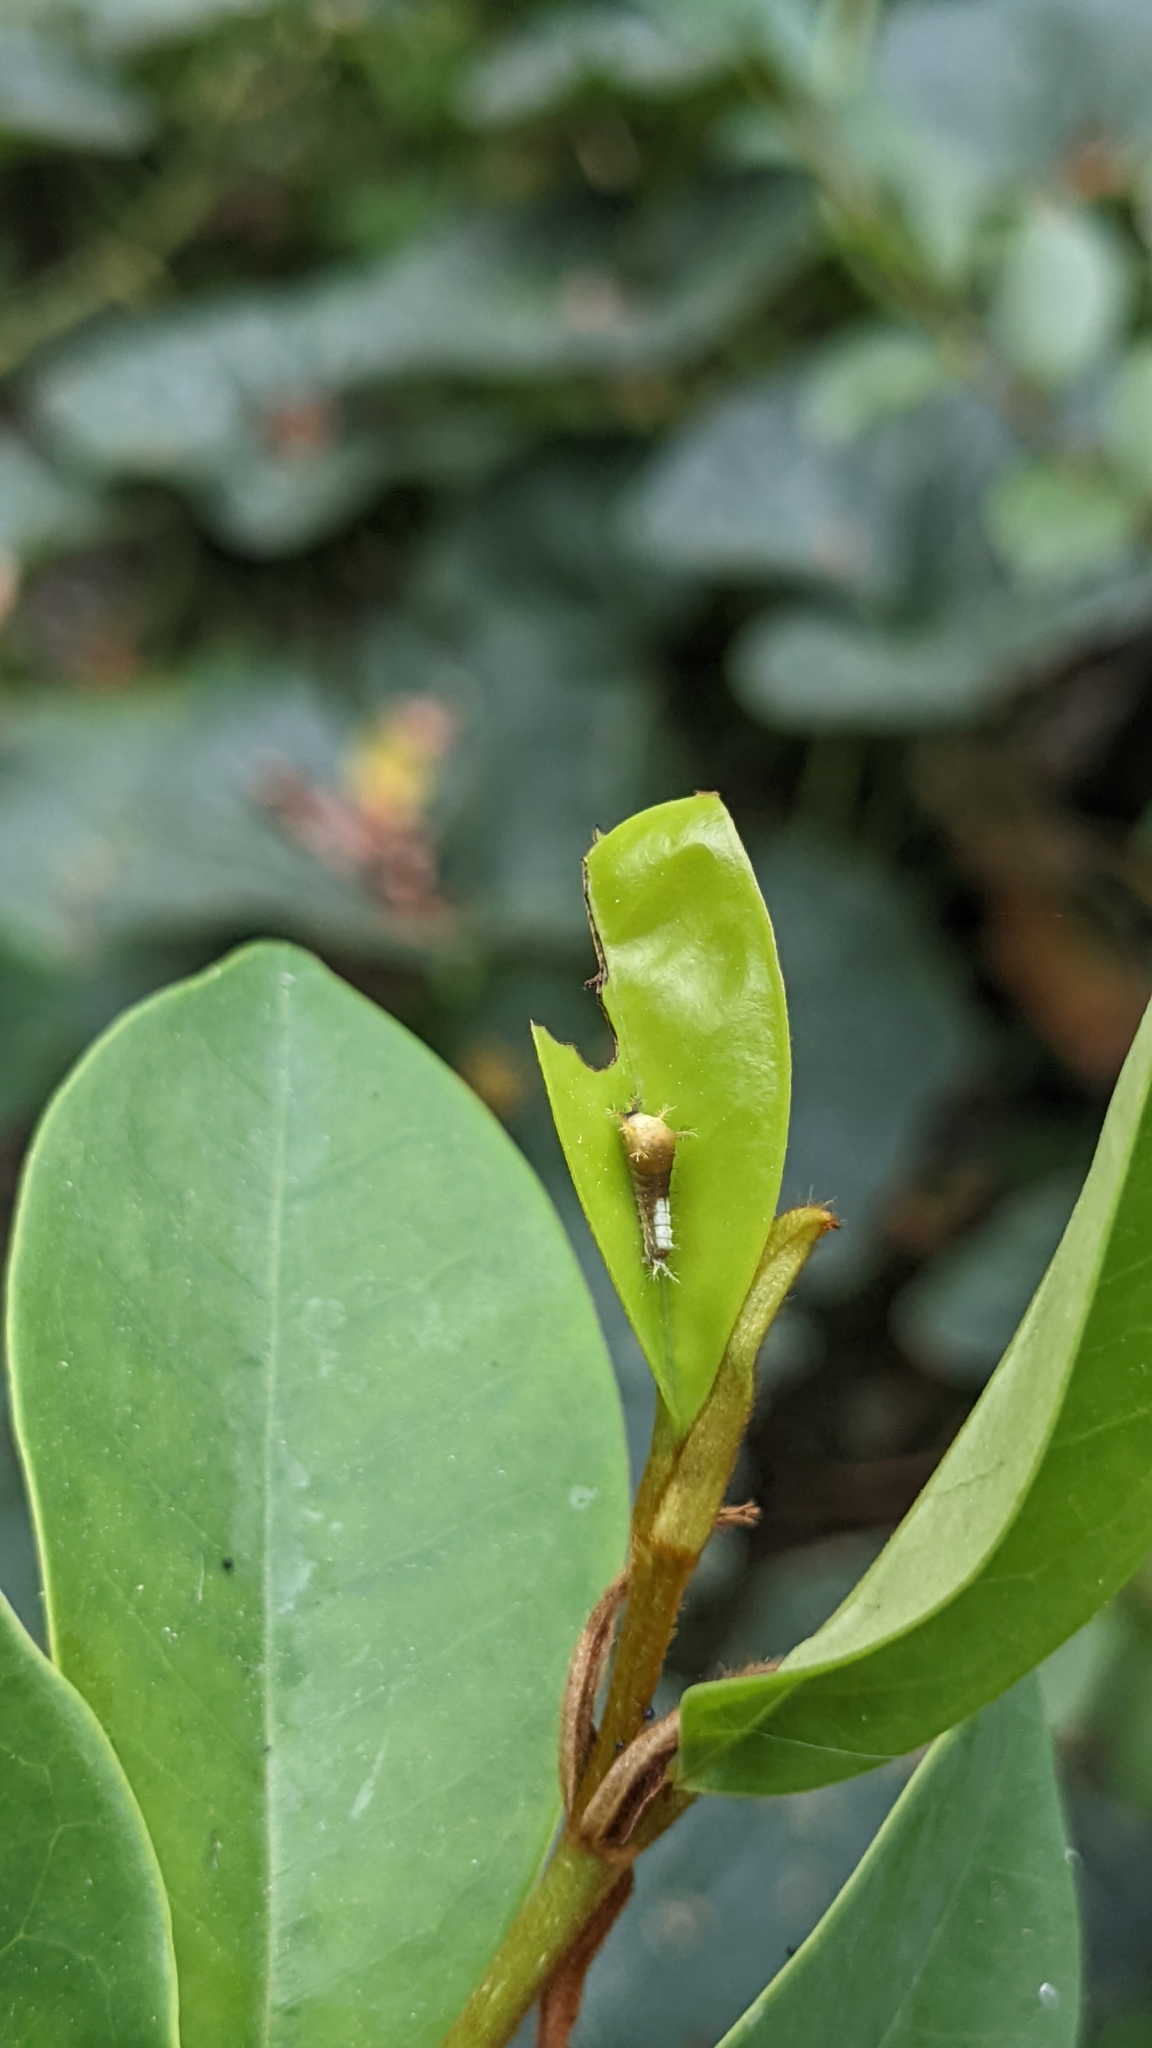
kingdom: Animalia
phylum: Arthropoda
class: Insecta
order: Lepidoptera
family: Papilionidae
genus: Graphium
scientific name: Graphium agamemnon
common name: Tailed jay
